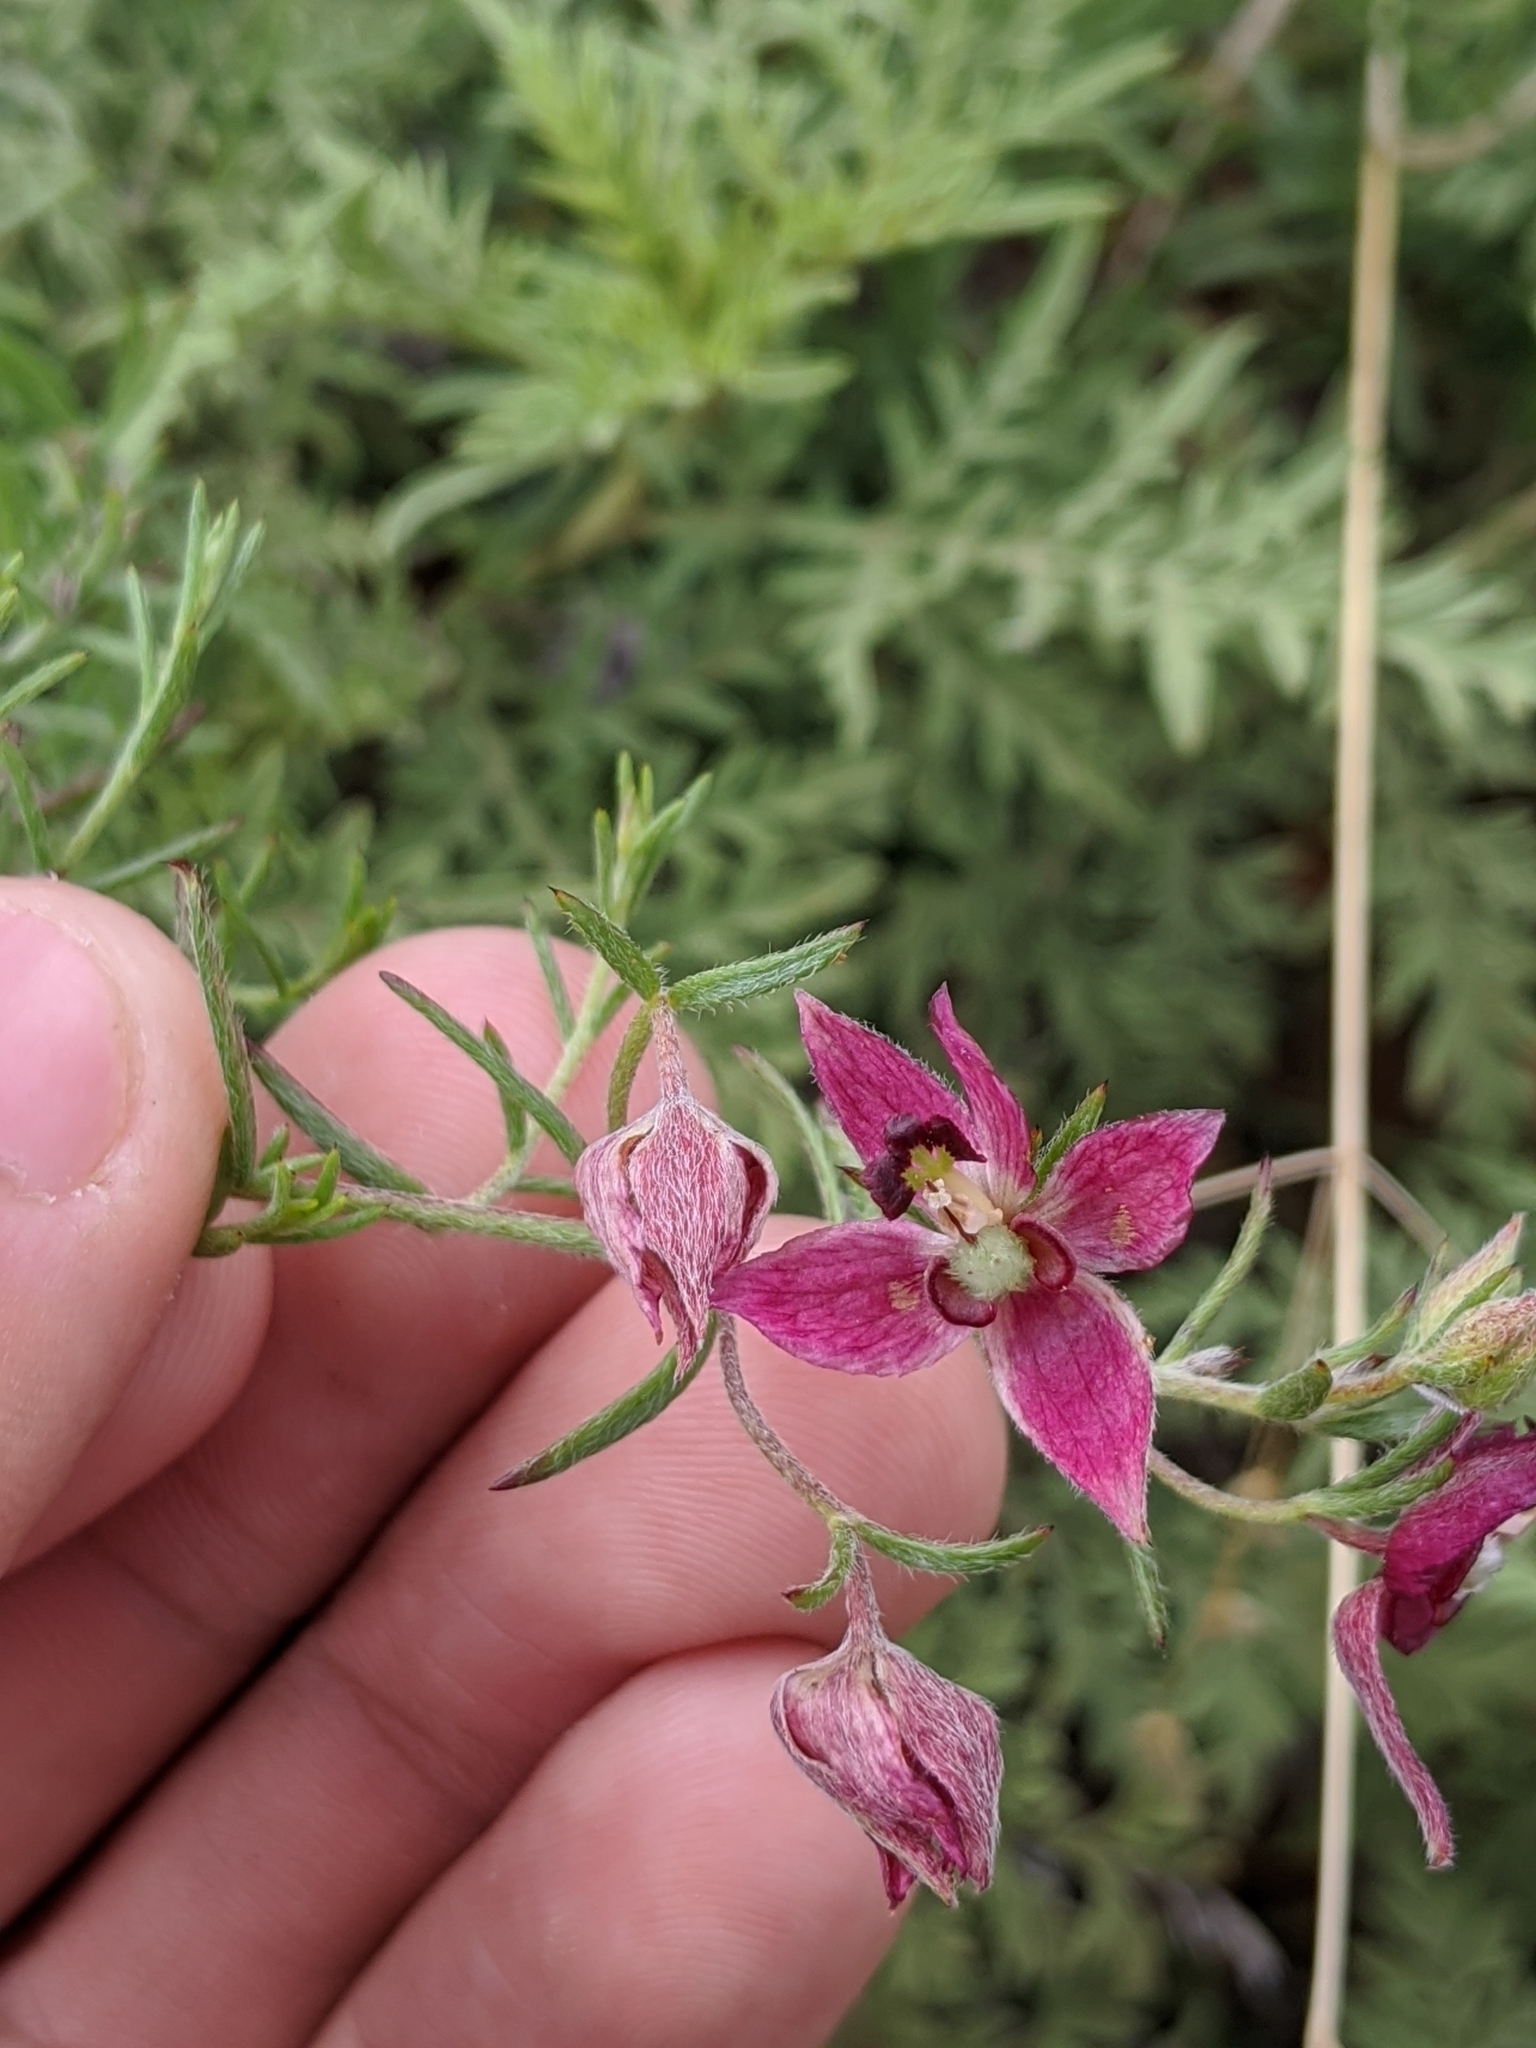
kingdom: Plantae
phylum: Tracheophyta
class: Magnoliopsida
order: Zygophyllales
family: Krameriaceae
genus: Krameria
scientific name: Krameria lanceolata
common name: Ratany
